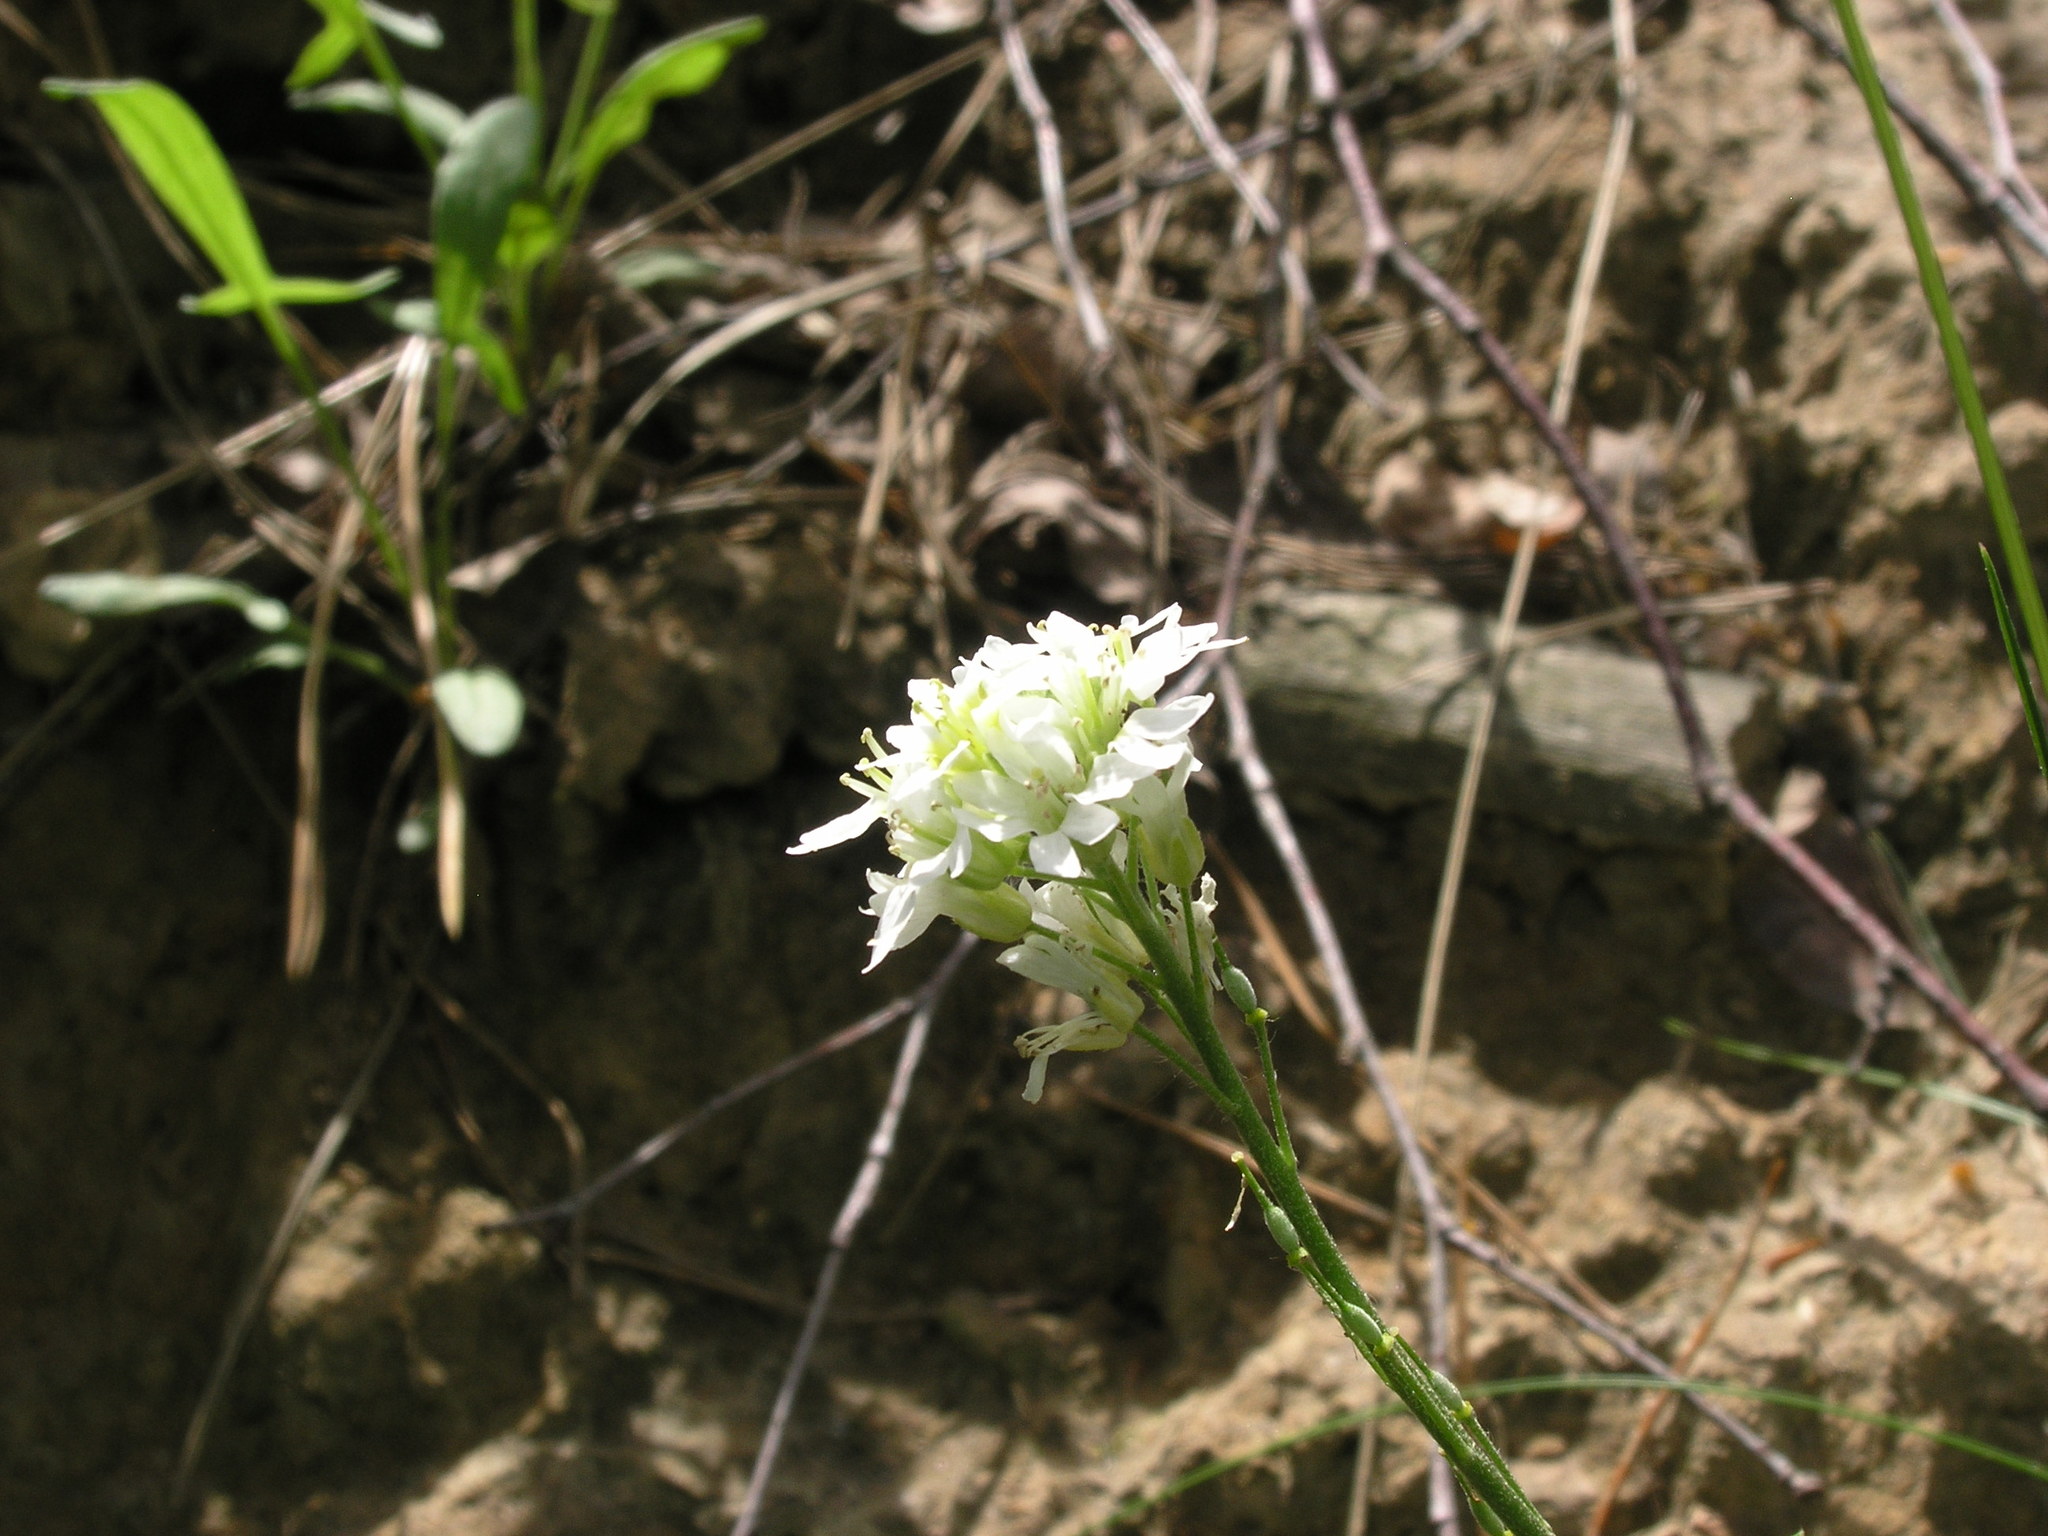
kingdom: Plantae
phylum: Tracheophyta
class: Magnoliopsida
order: Brassicales
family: Brassicaceae
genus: Berteroa
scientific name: Berteroa incana
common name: Hoary alison
